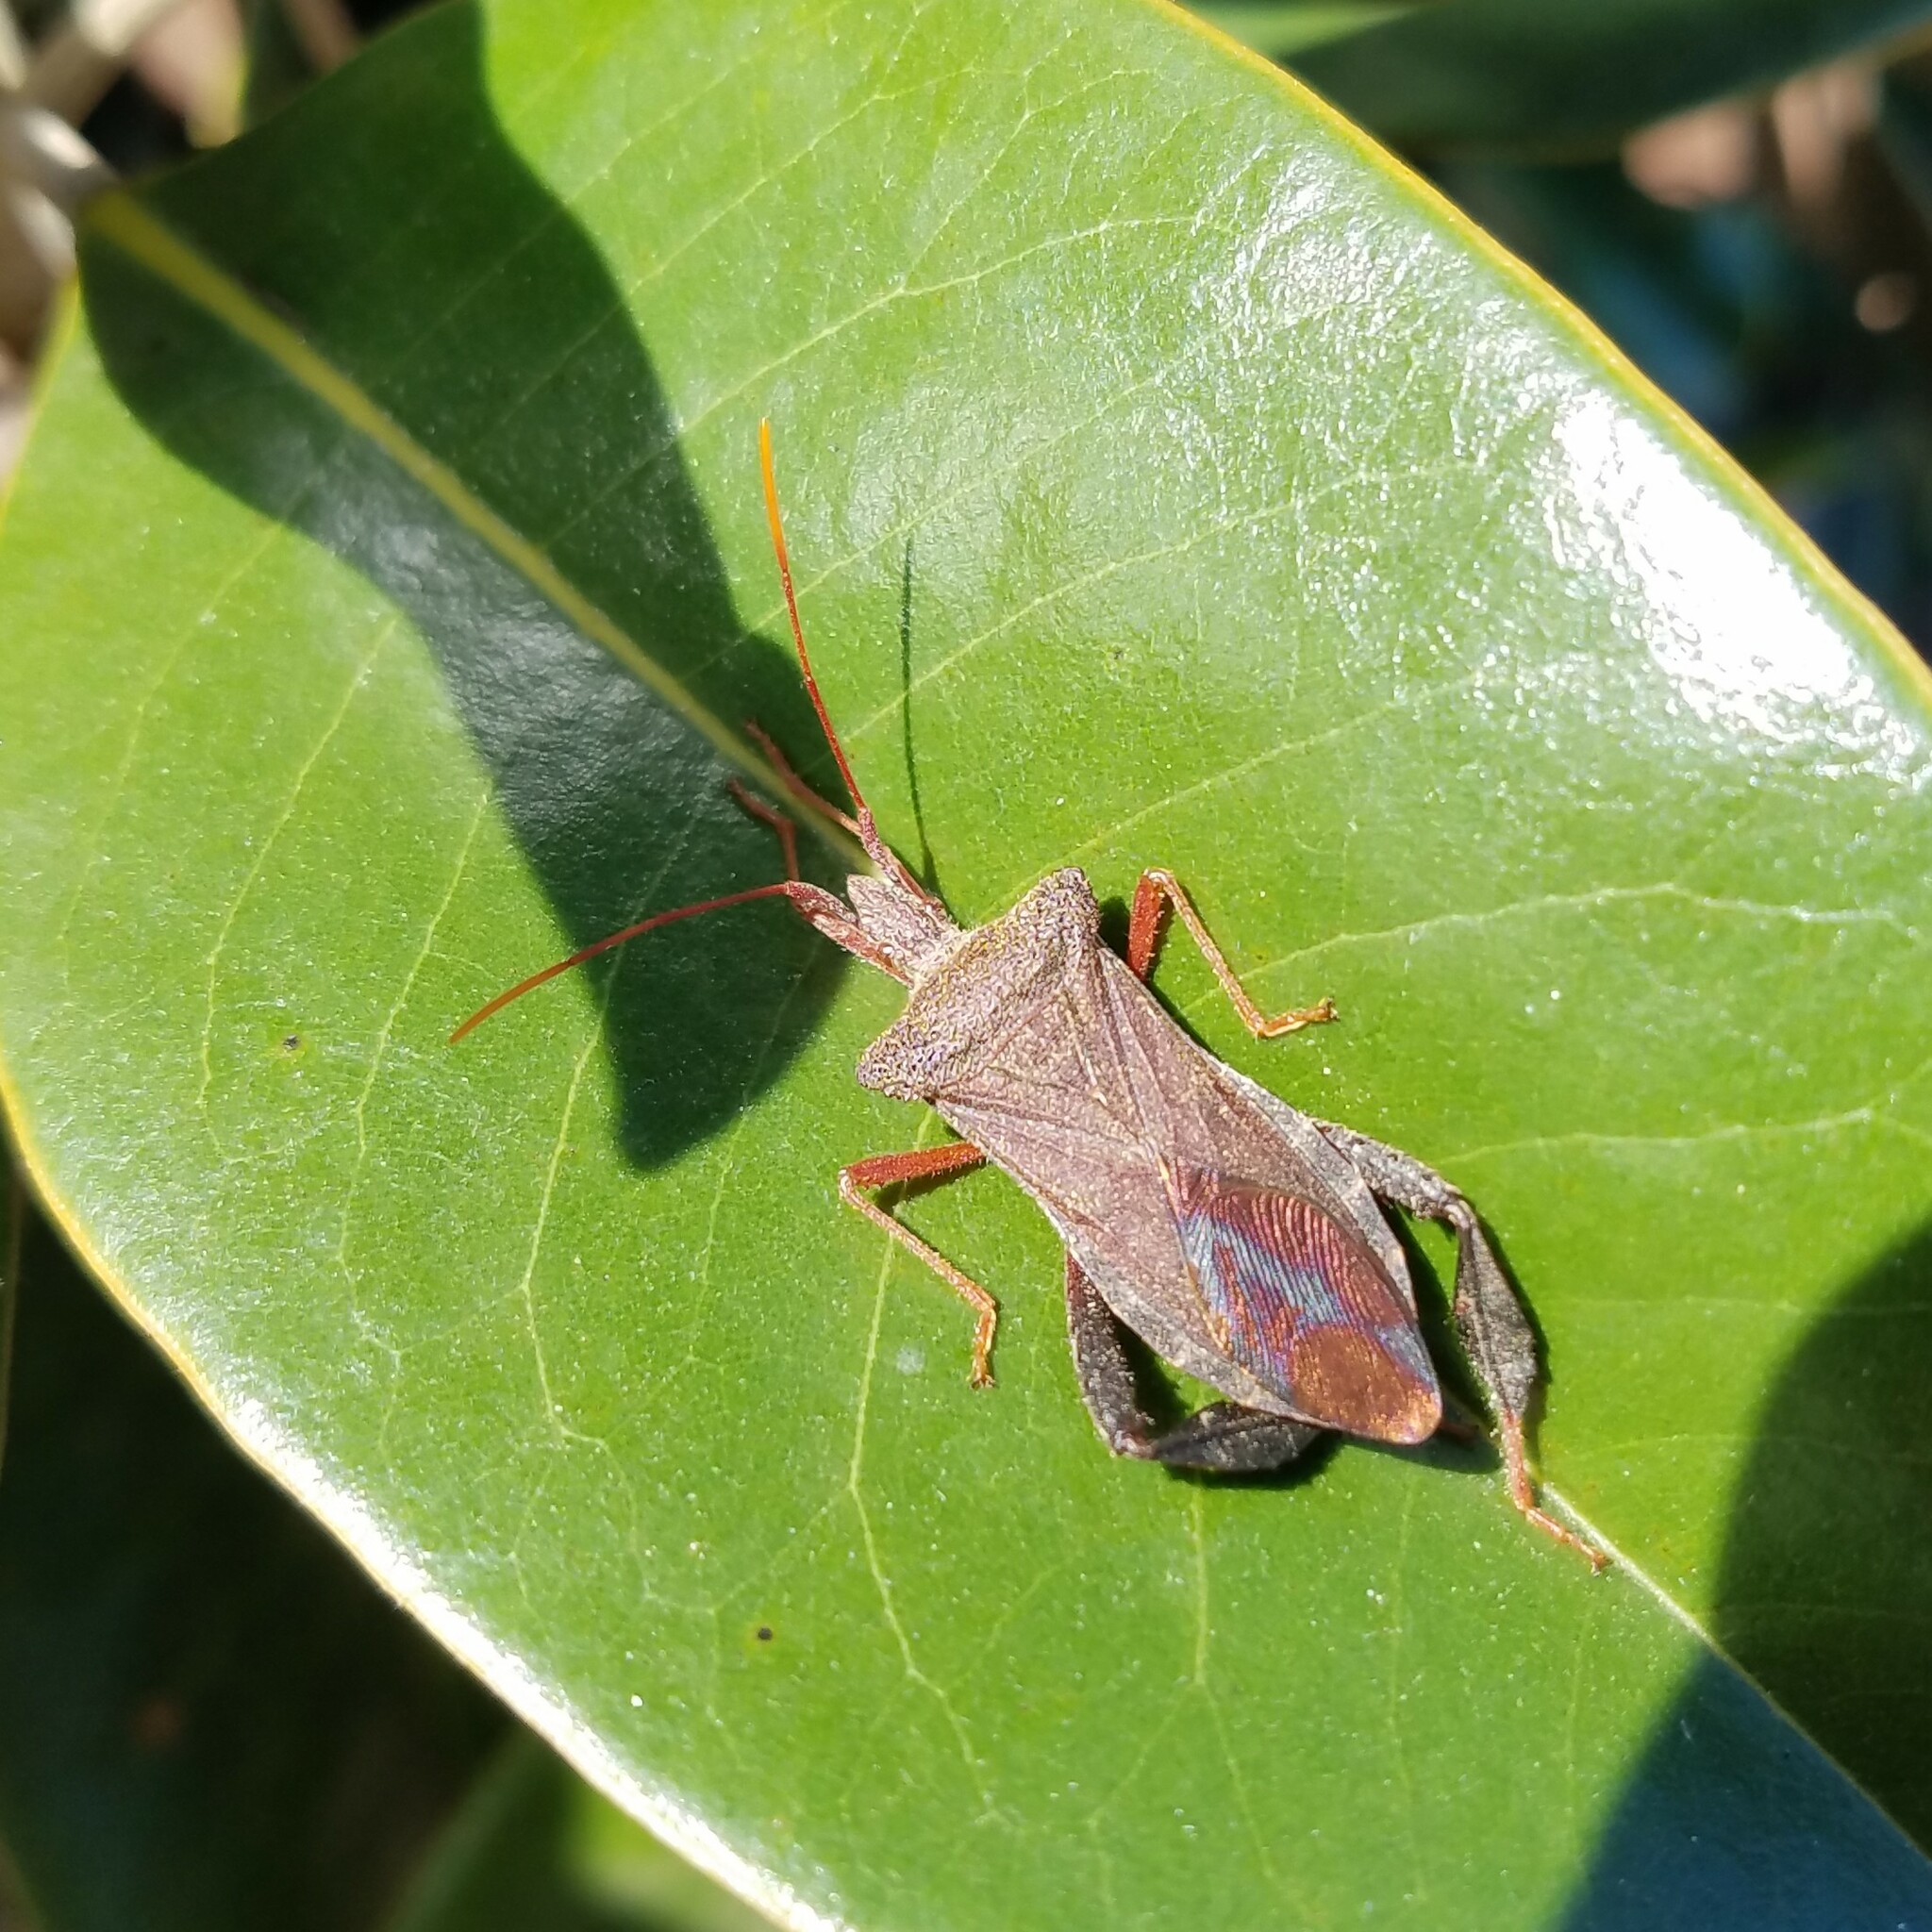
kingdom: Animalia
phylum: Arthropoda
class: Insecta
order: Hemiptera
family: Coreidae
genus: Leptoglossus
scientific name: Leptoglossus fulvicornis
